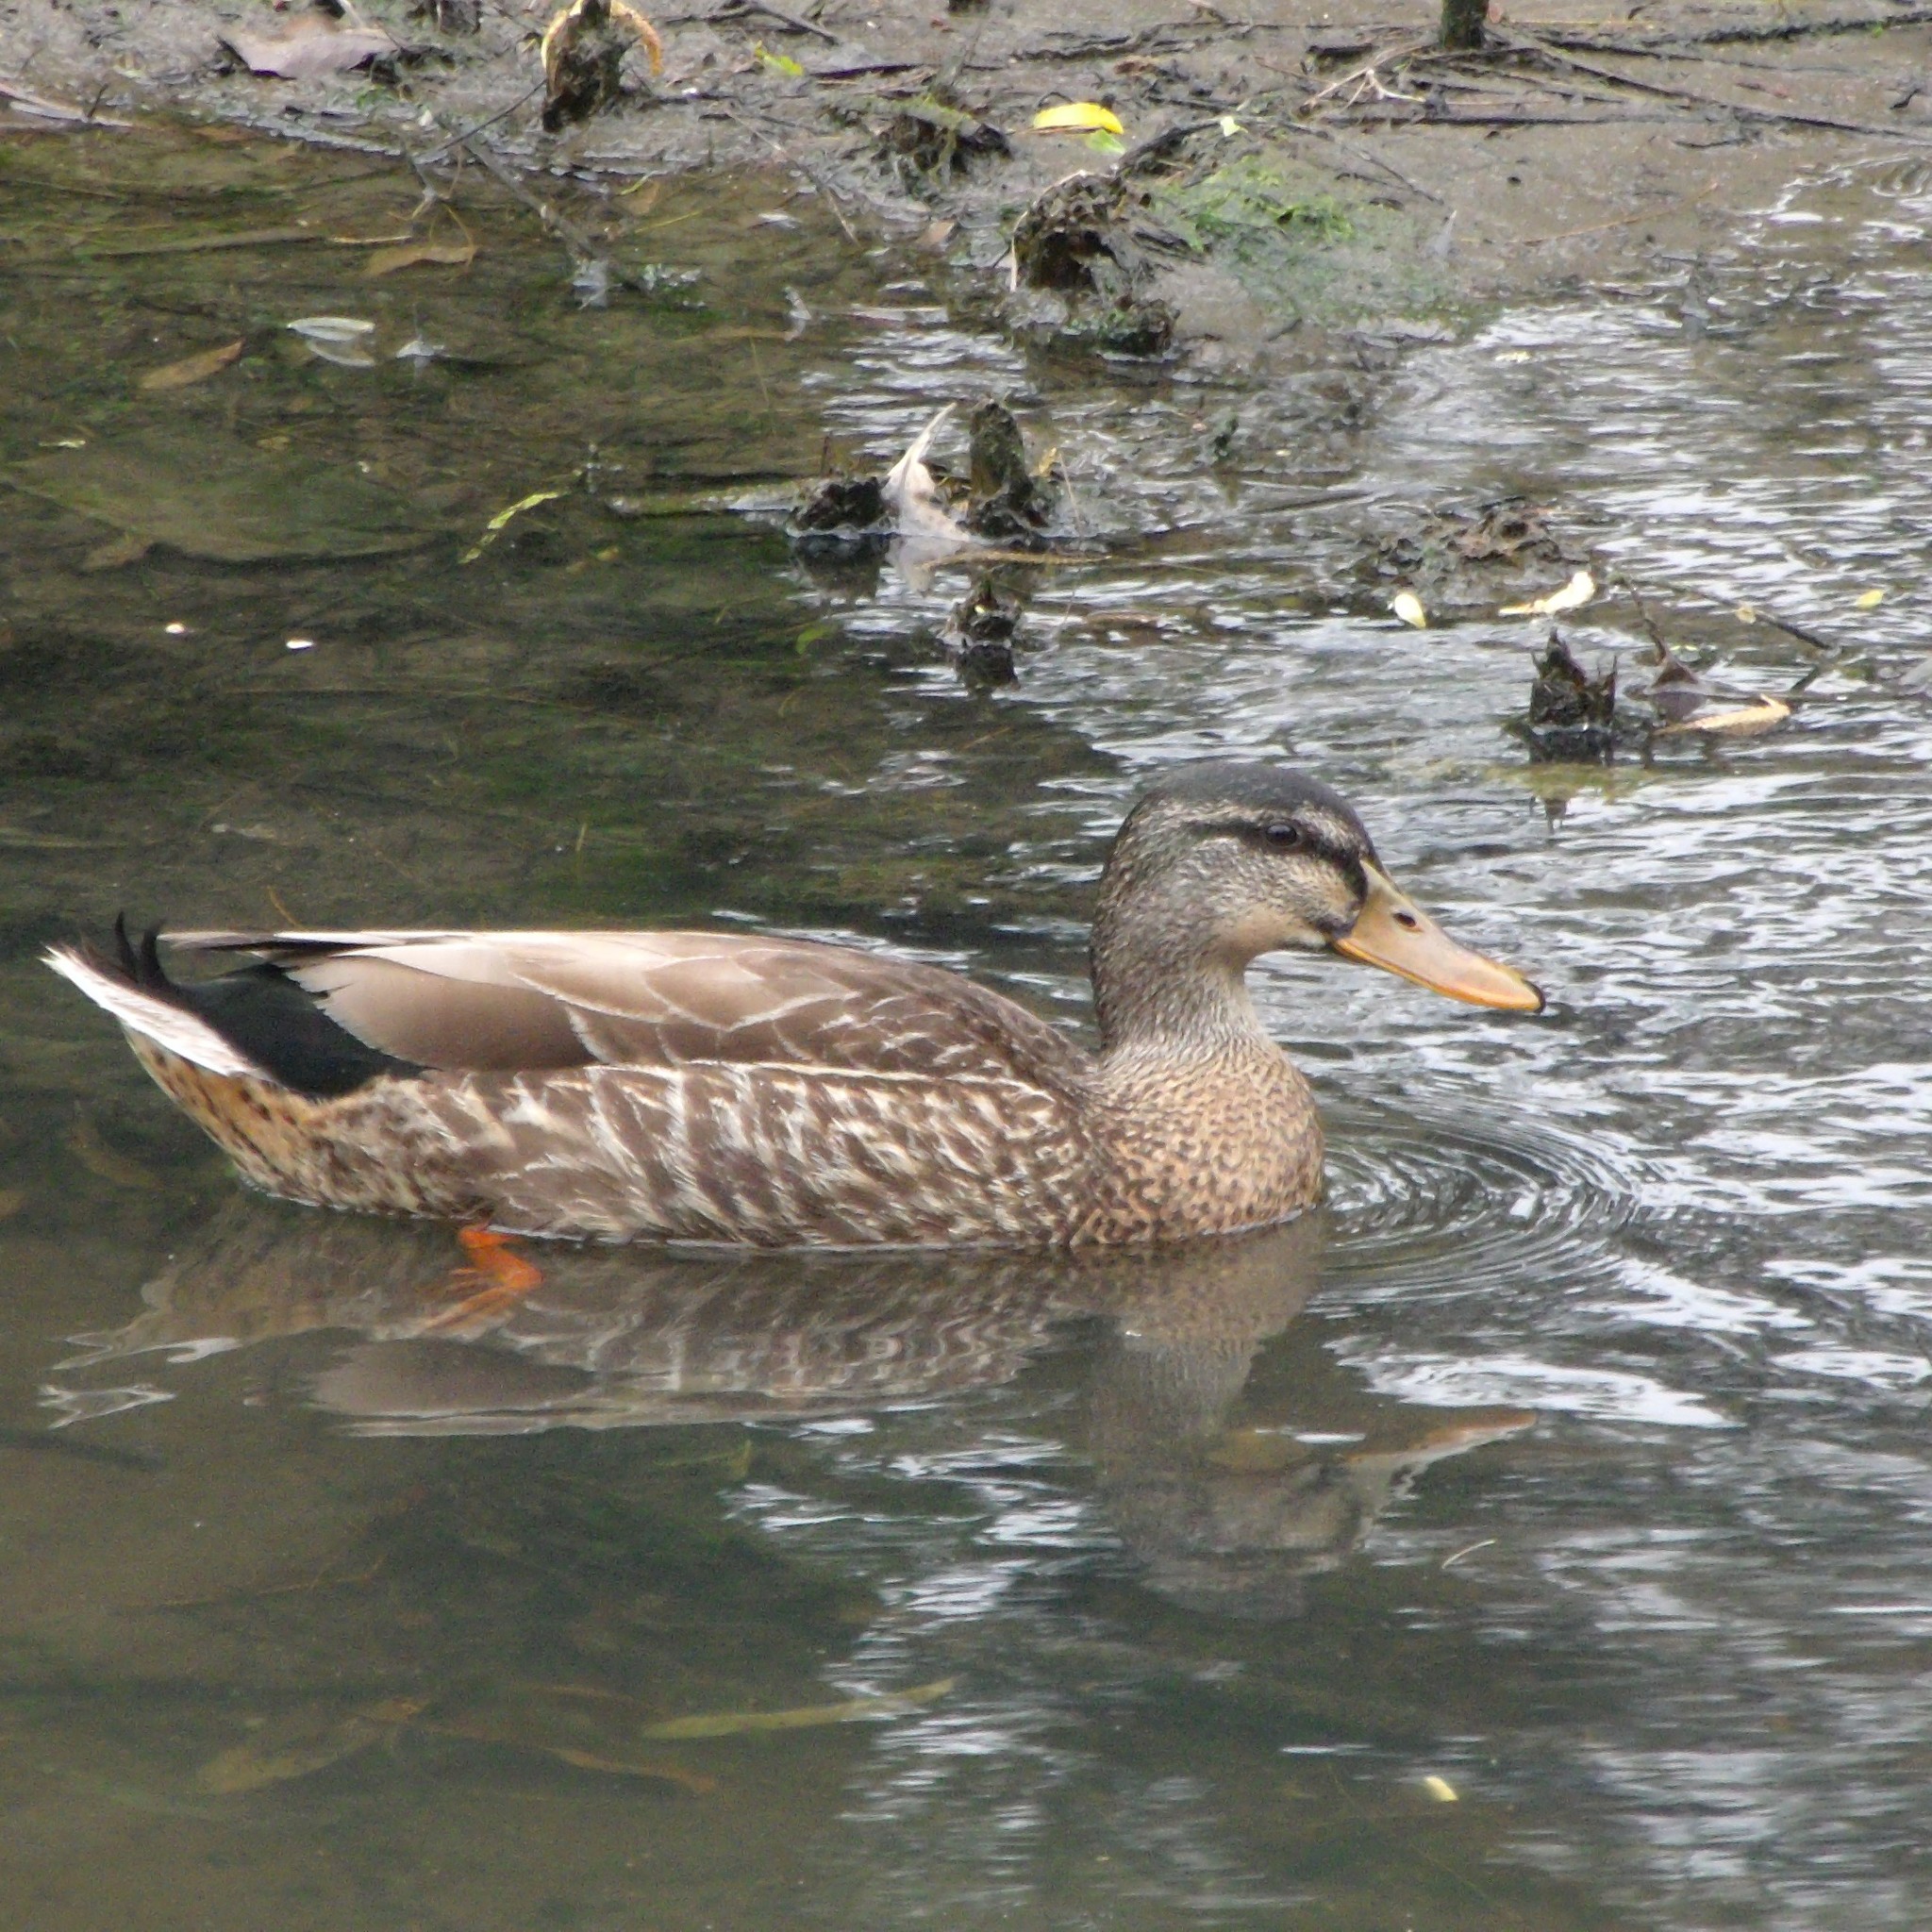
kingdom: Animalia
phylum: Chordata
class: Aves
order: Anseriformes
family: Anatidae
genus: Anas
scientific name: Anas
